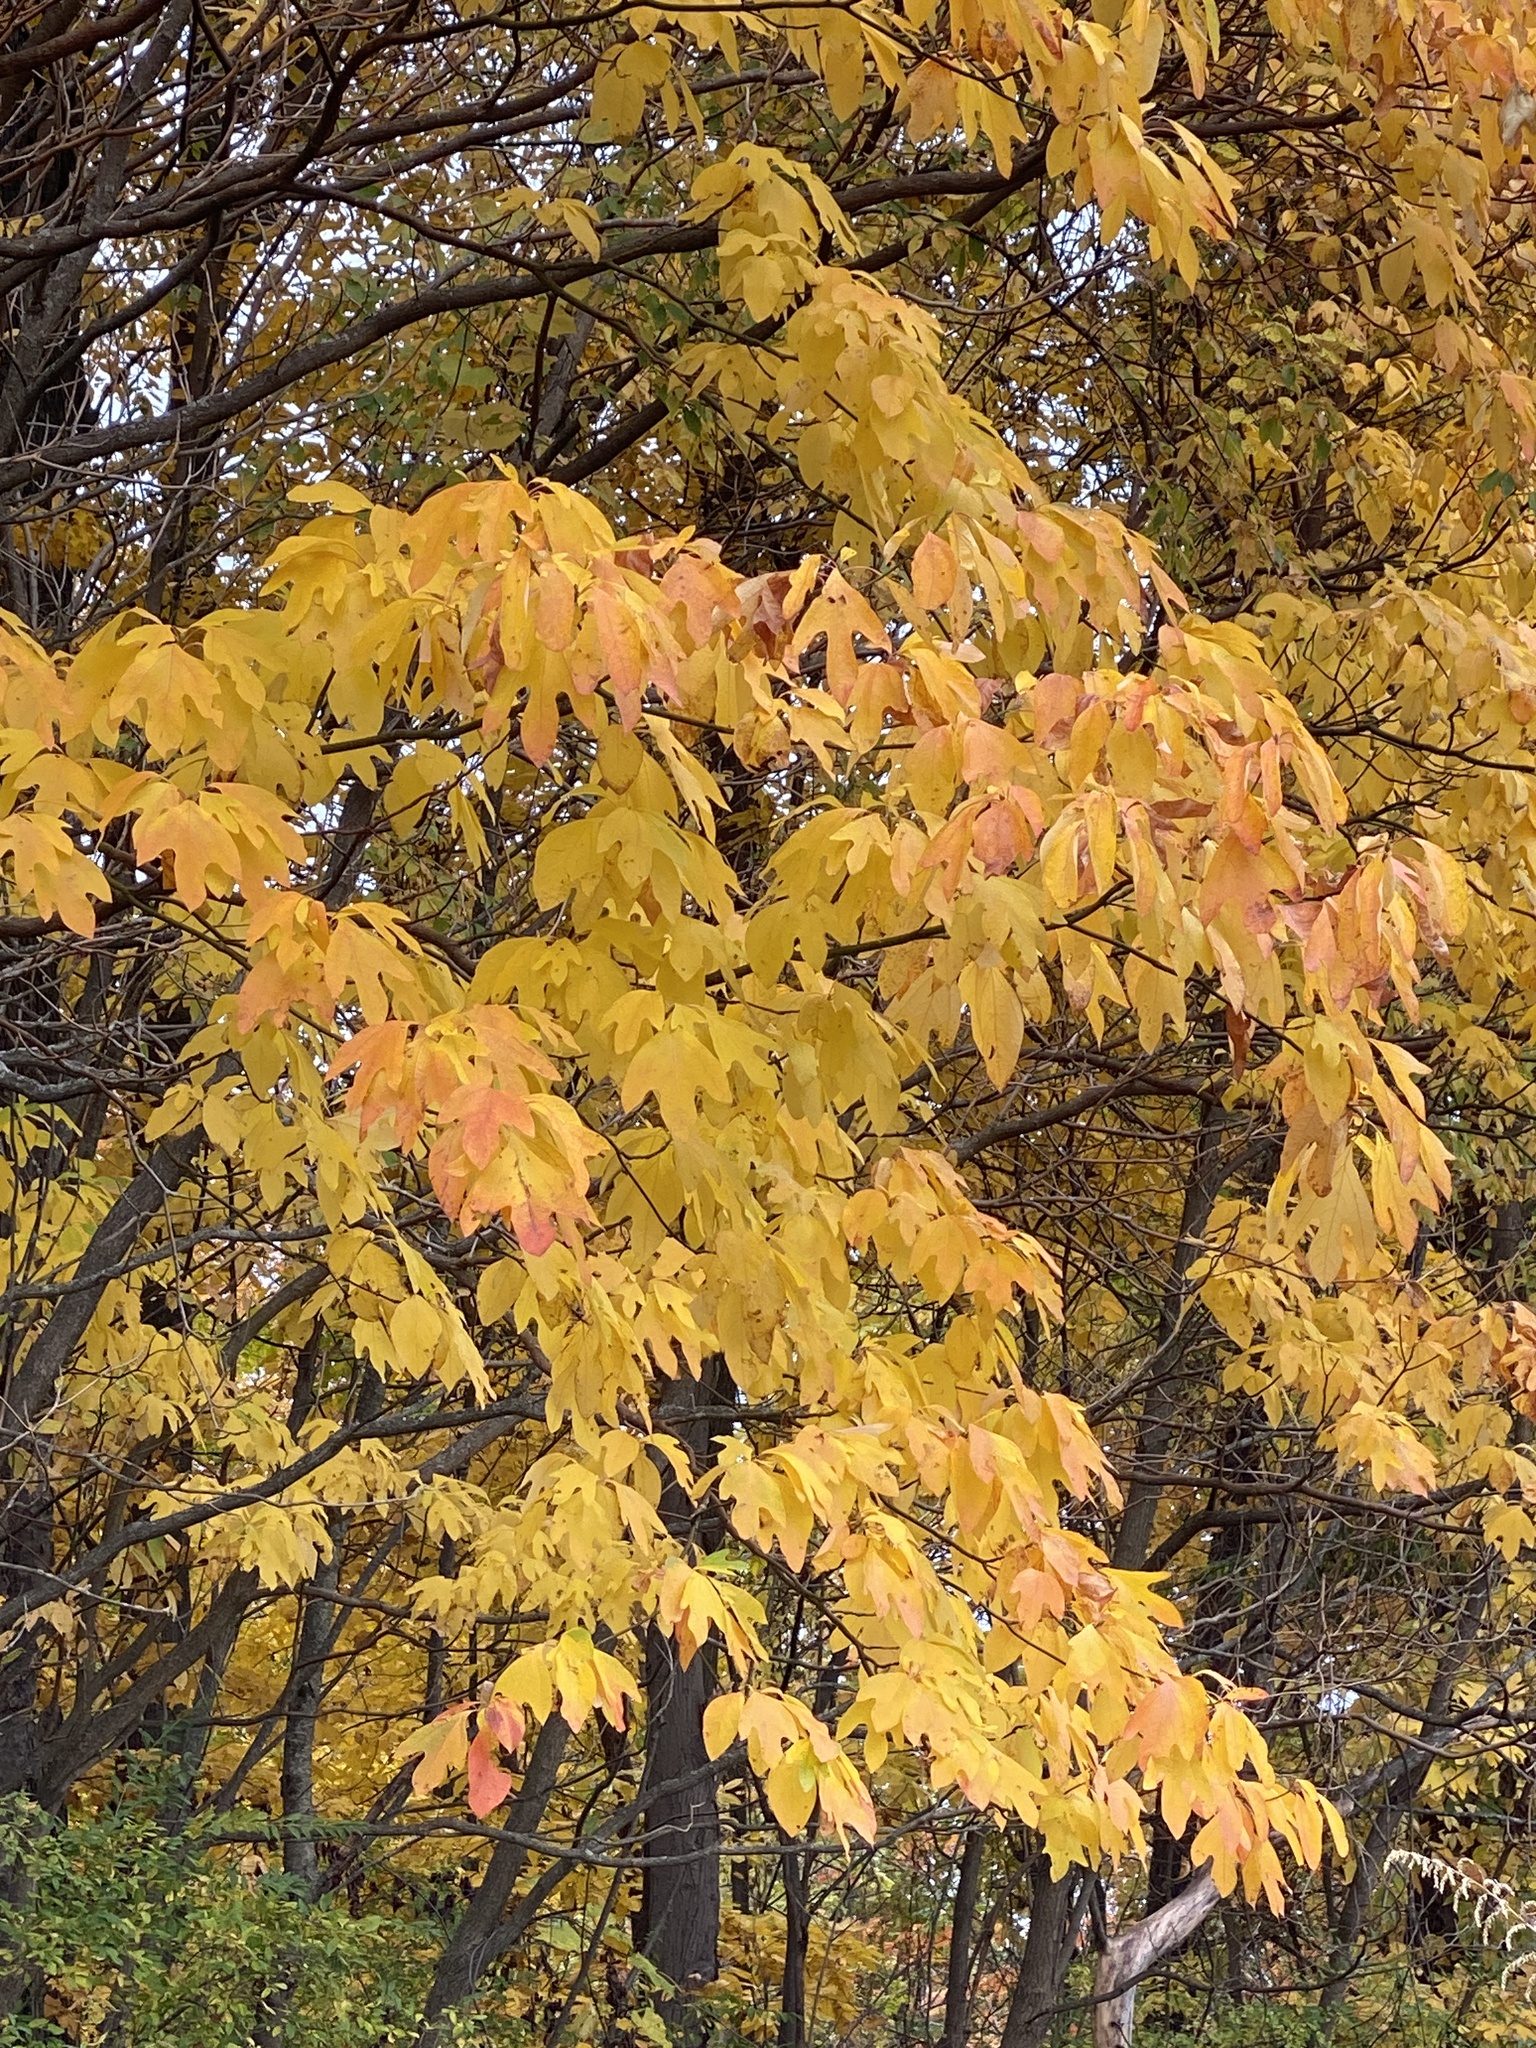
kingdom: Plantae
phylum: Tracheophyta
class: Magnoliopsida
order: Laurales
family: Lauraceae
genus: Sassafras
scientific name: Sassafras albidum
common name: Sassafras
